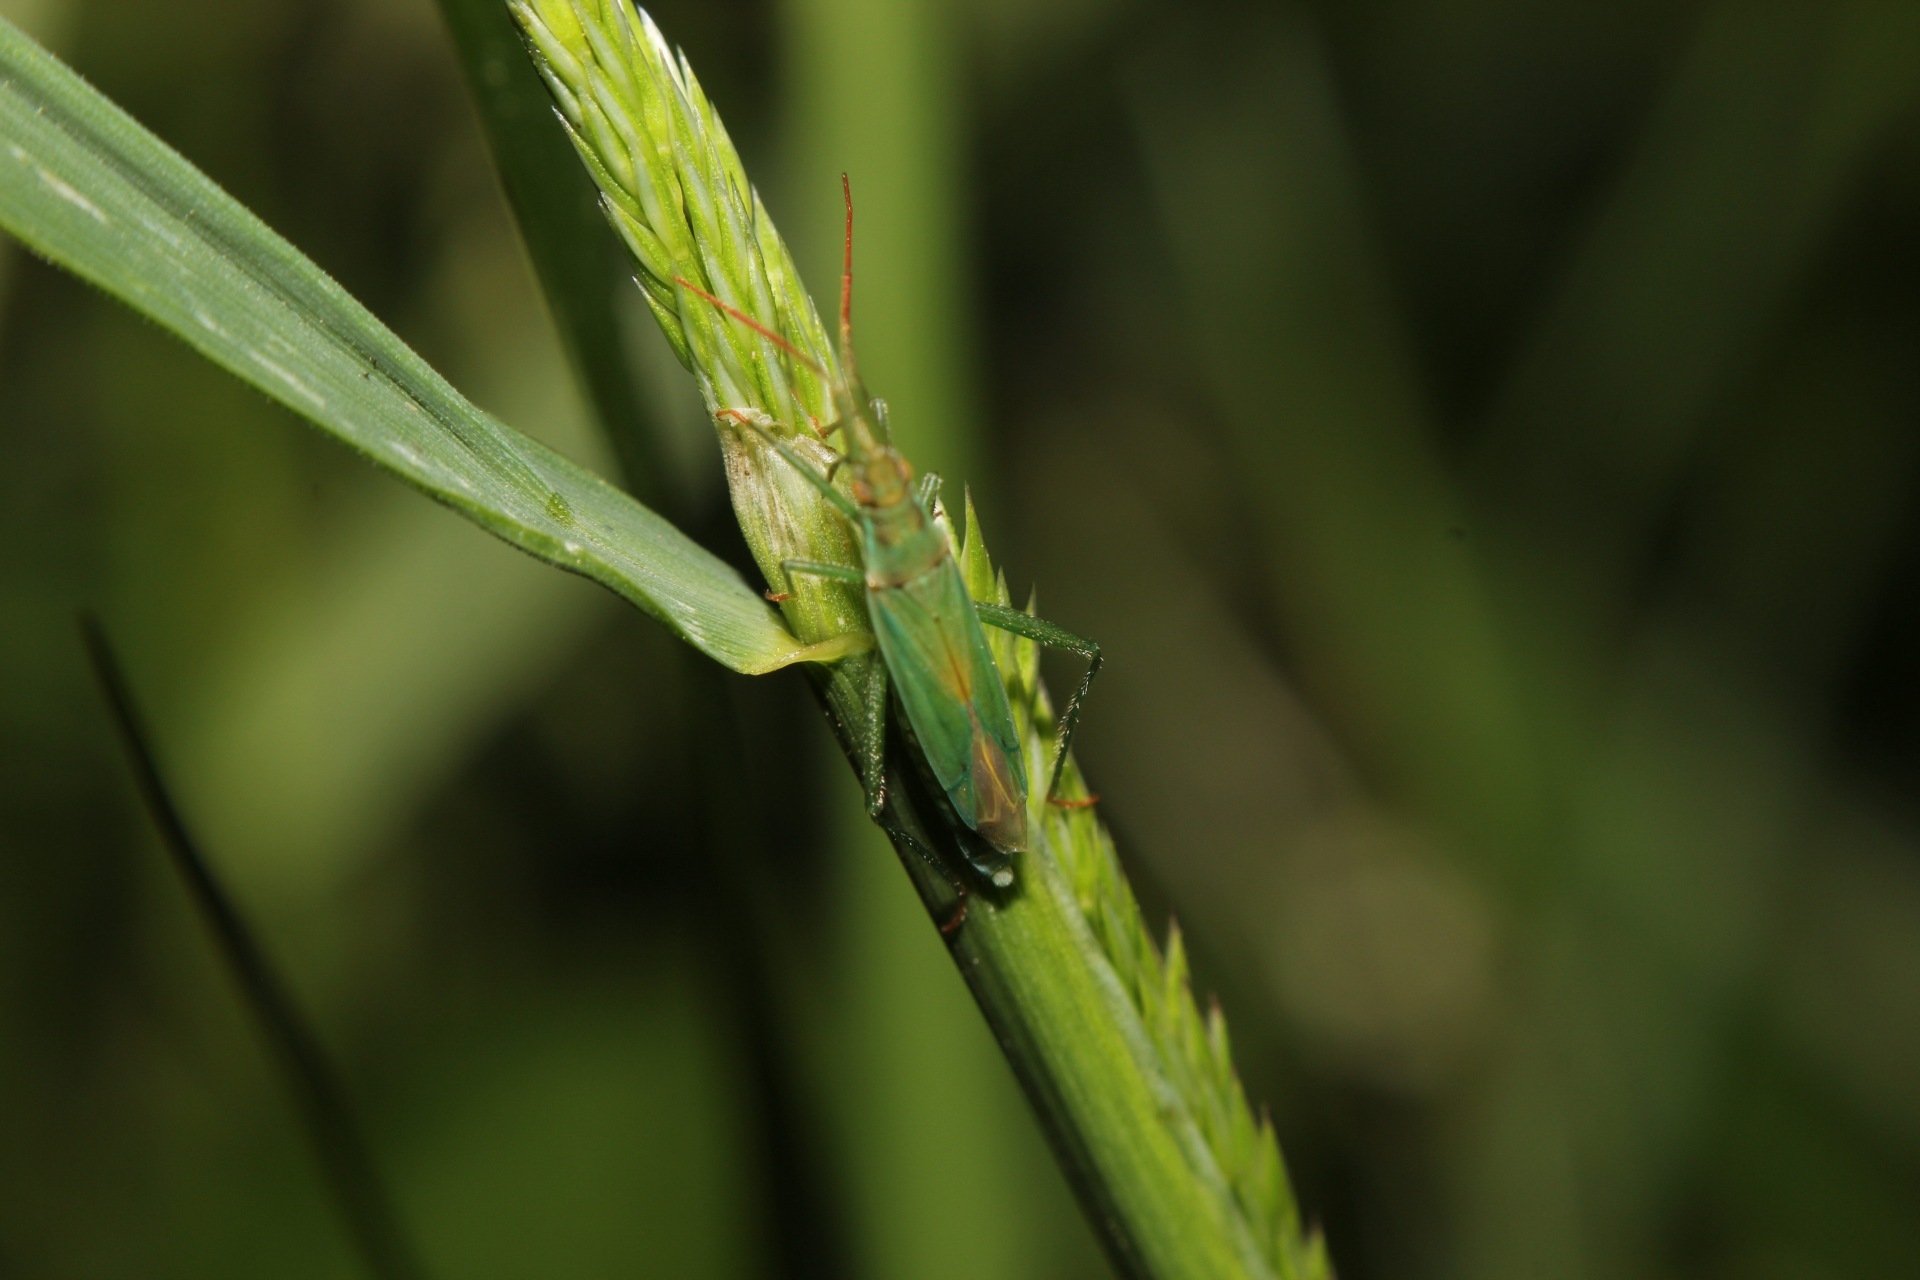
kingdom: Animalia
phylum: Arthropoda
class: Insecta
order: Hemiptera
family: Miridae
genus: Stenodema
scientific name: Stenodema laevigata
